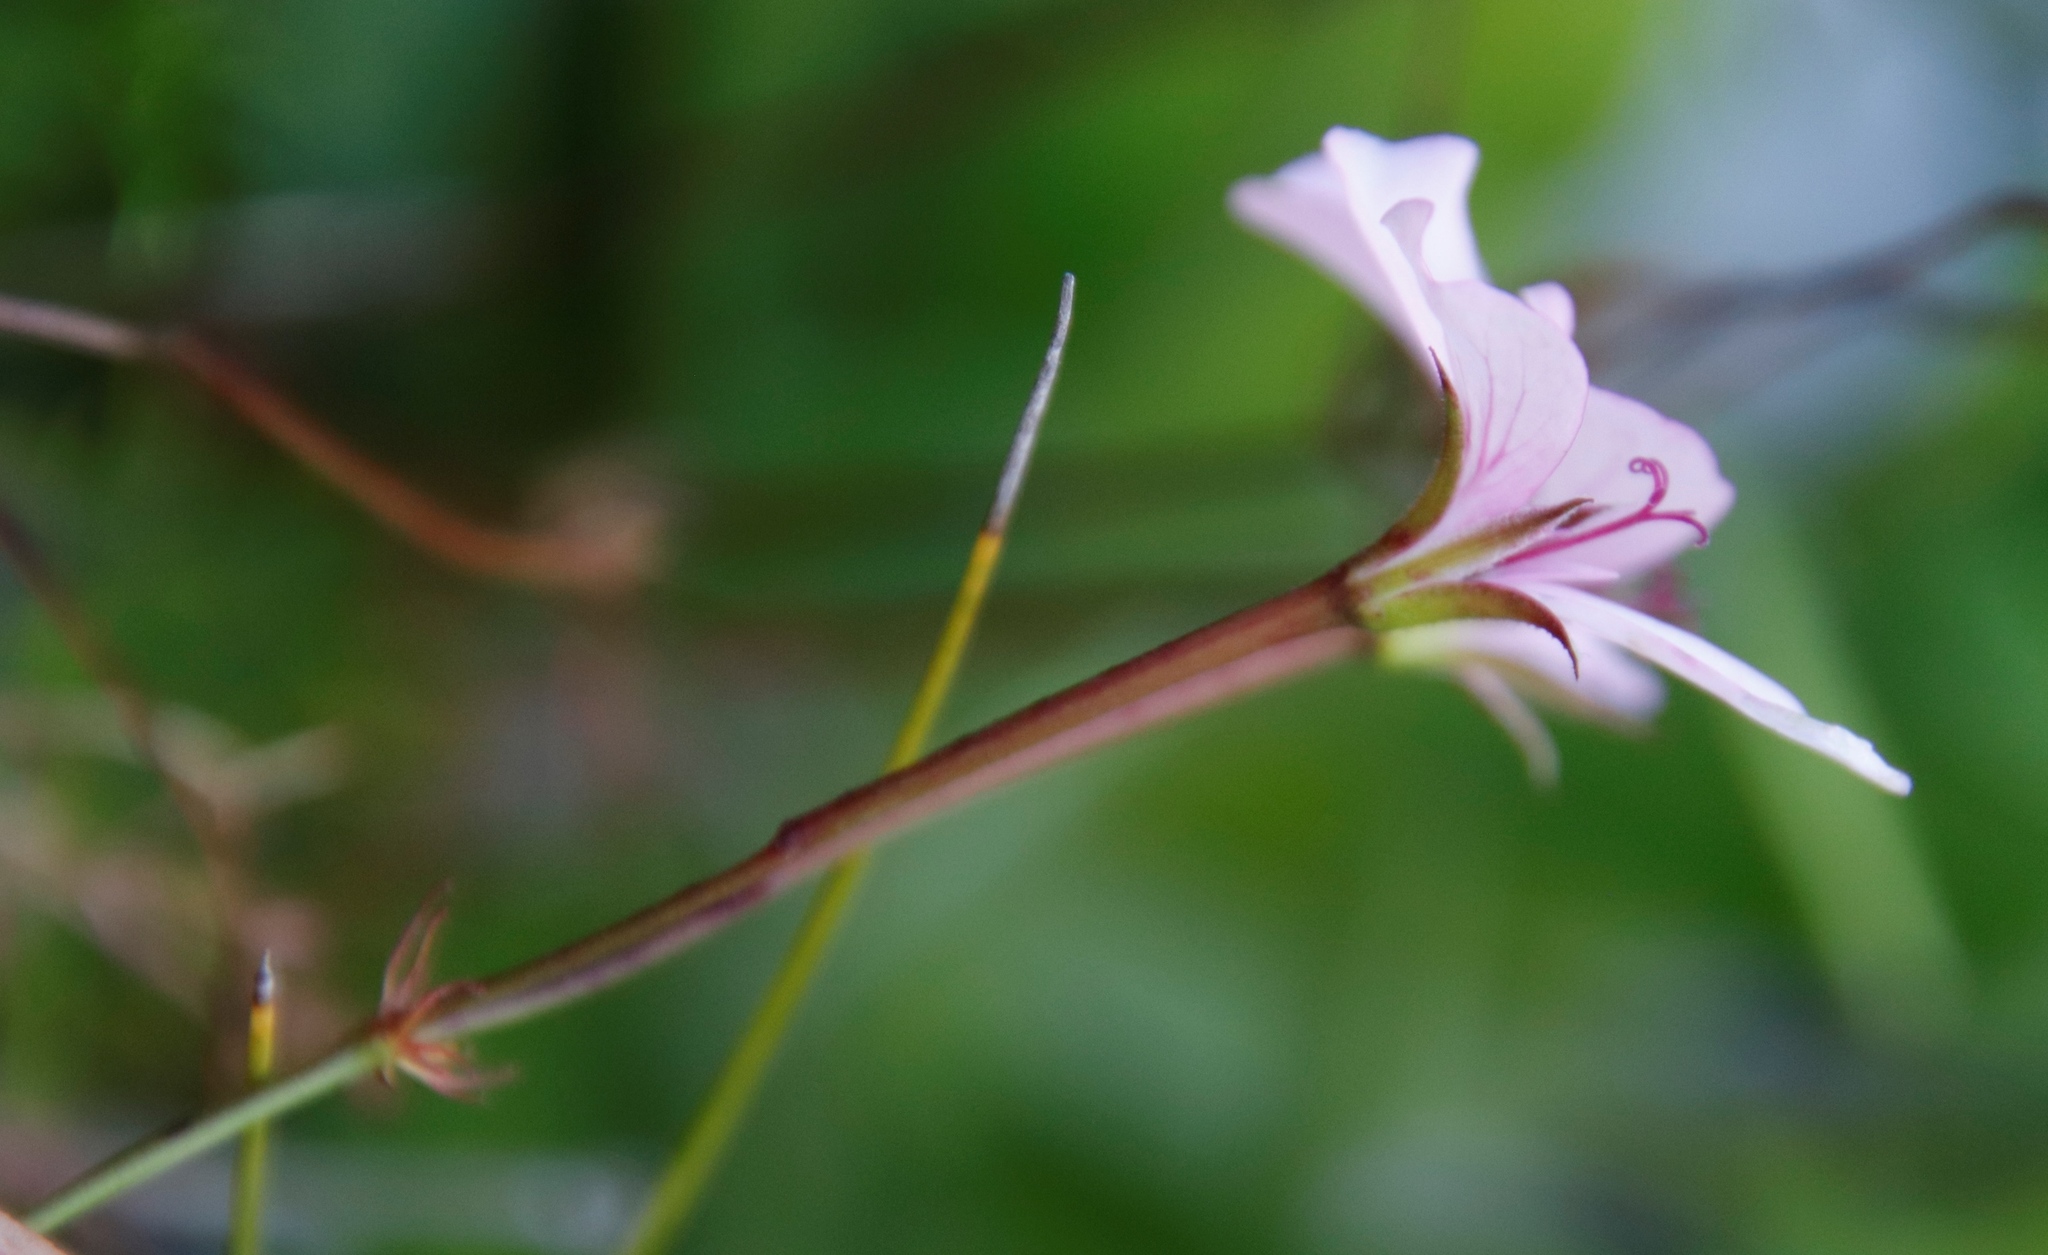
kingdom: Plantae
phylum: Tracheophyta
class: Magnoliopsida
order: Geraniales
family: Geraniaceae
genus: Pelargonium
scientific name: Pelargonium artemisiifolium
